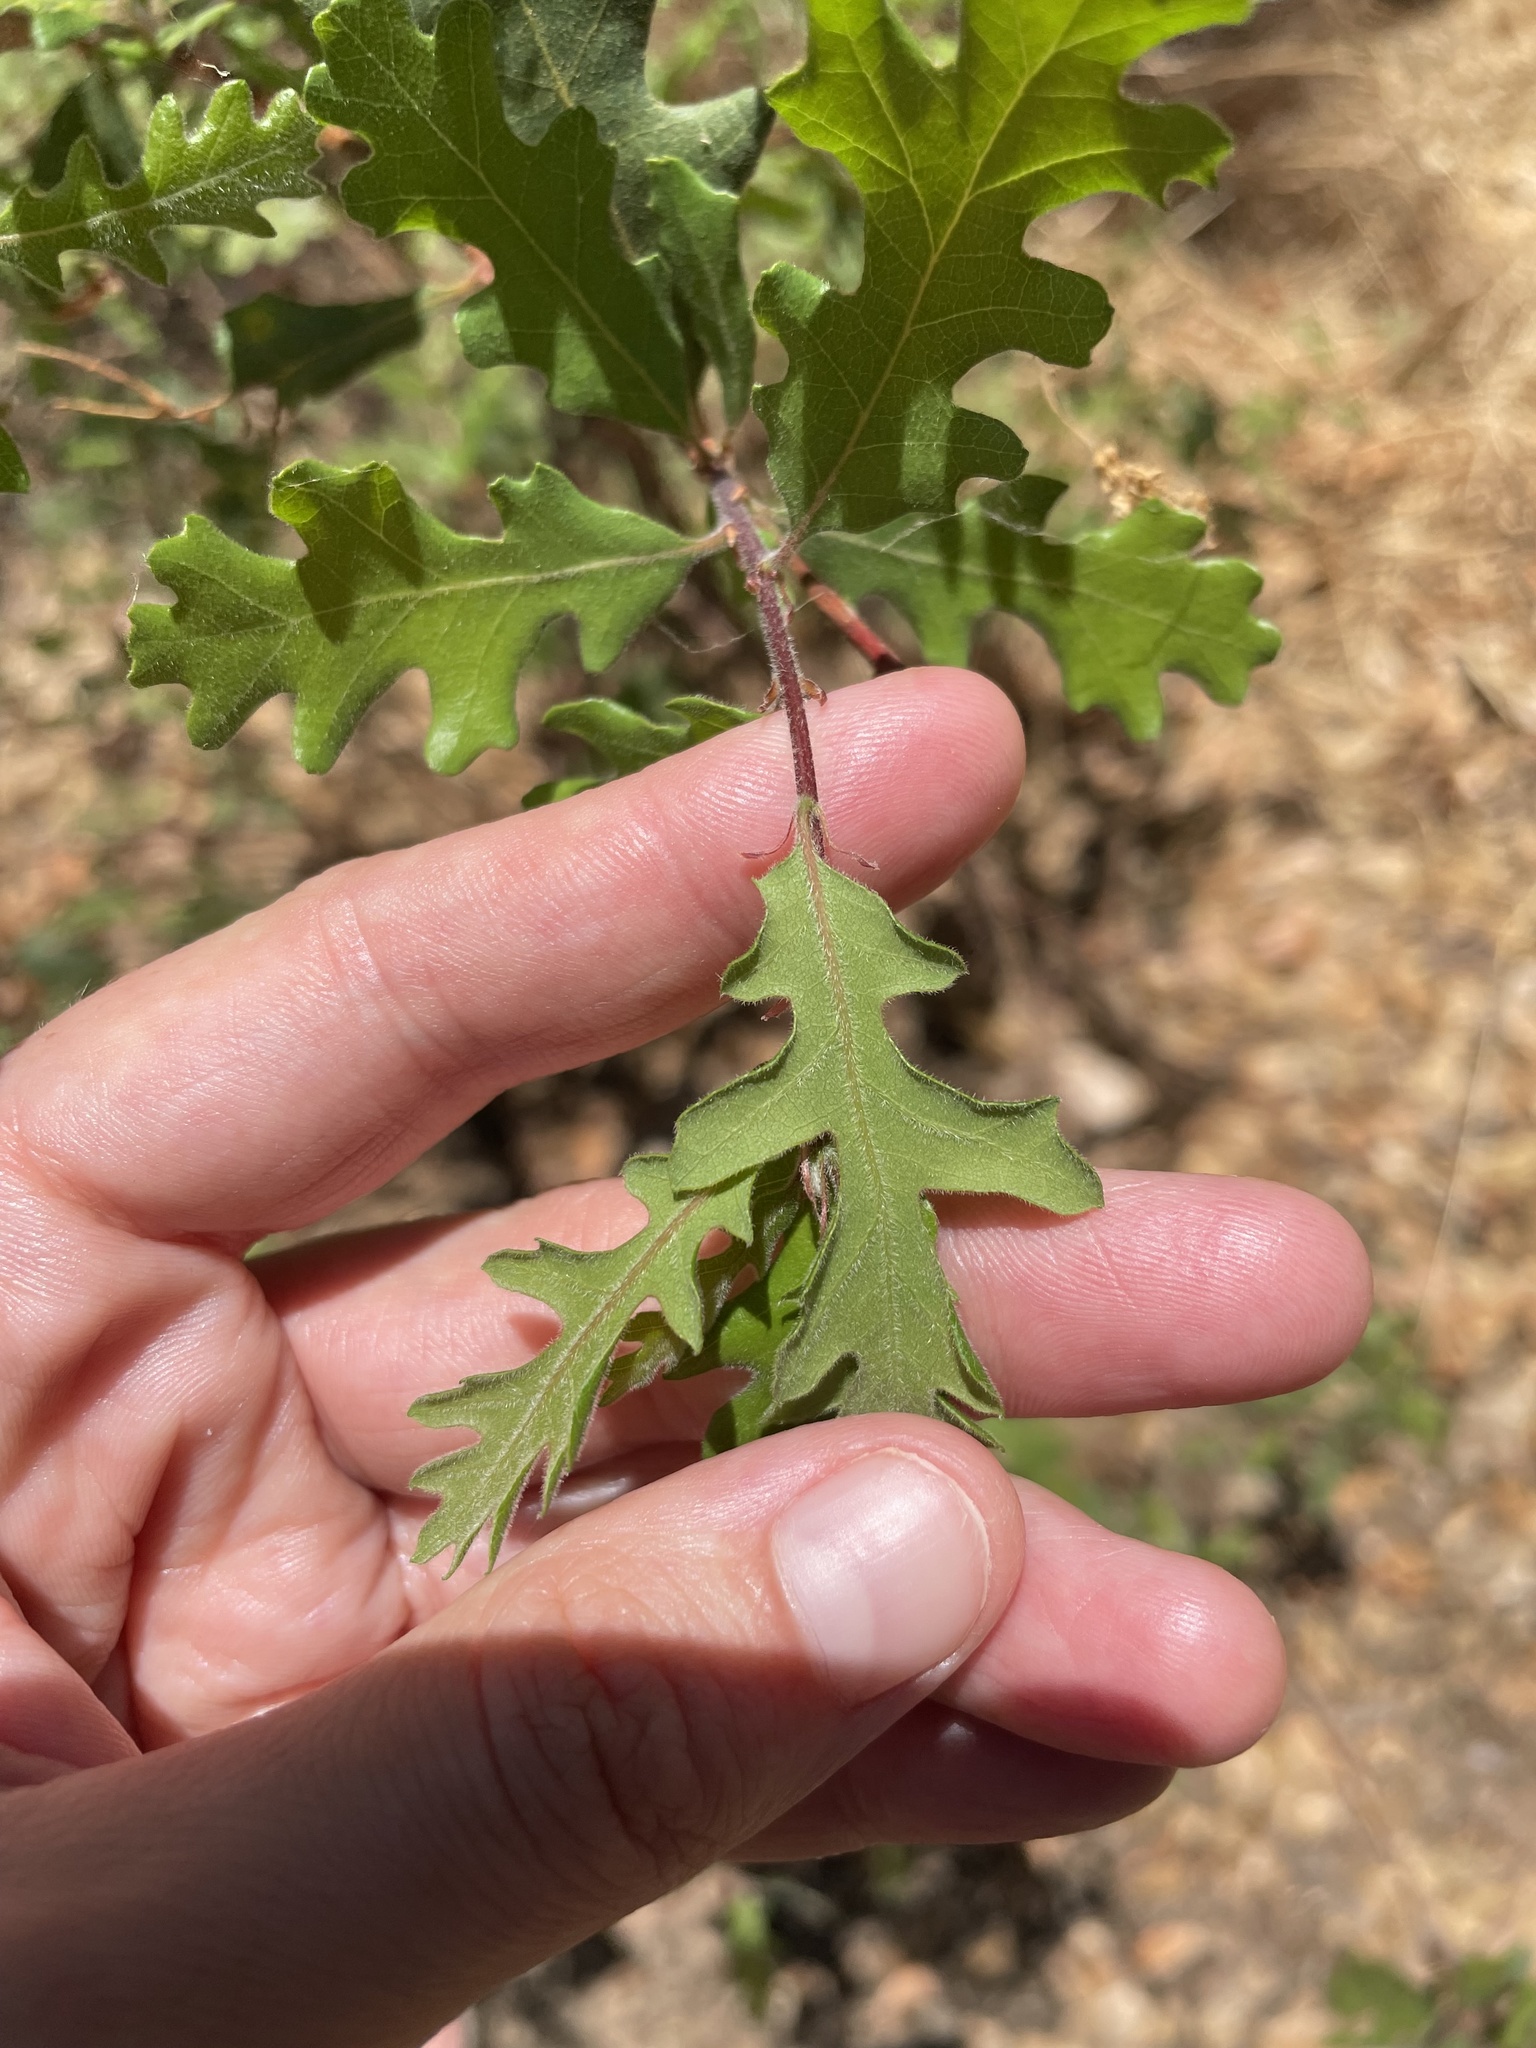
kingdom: Plantae
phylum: Tracheophyta
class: Magnoliopsida
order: Fagales
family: Fagaceae
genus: Quercus
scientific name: Quercus lobata
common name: Valley oak
